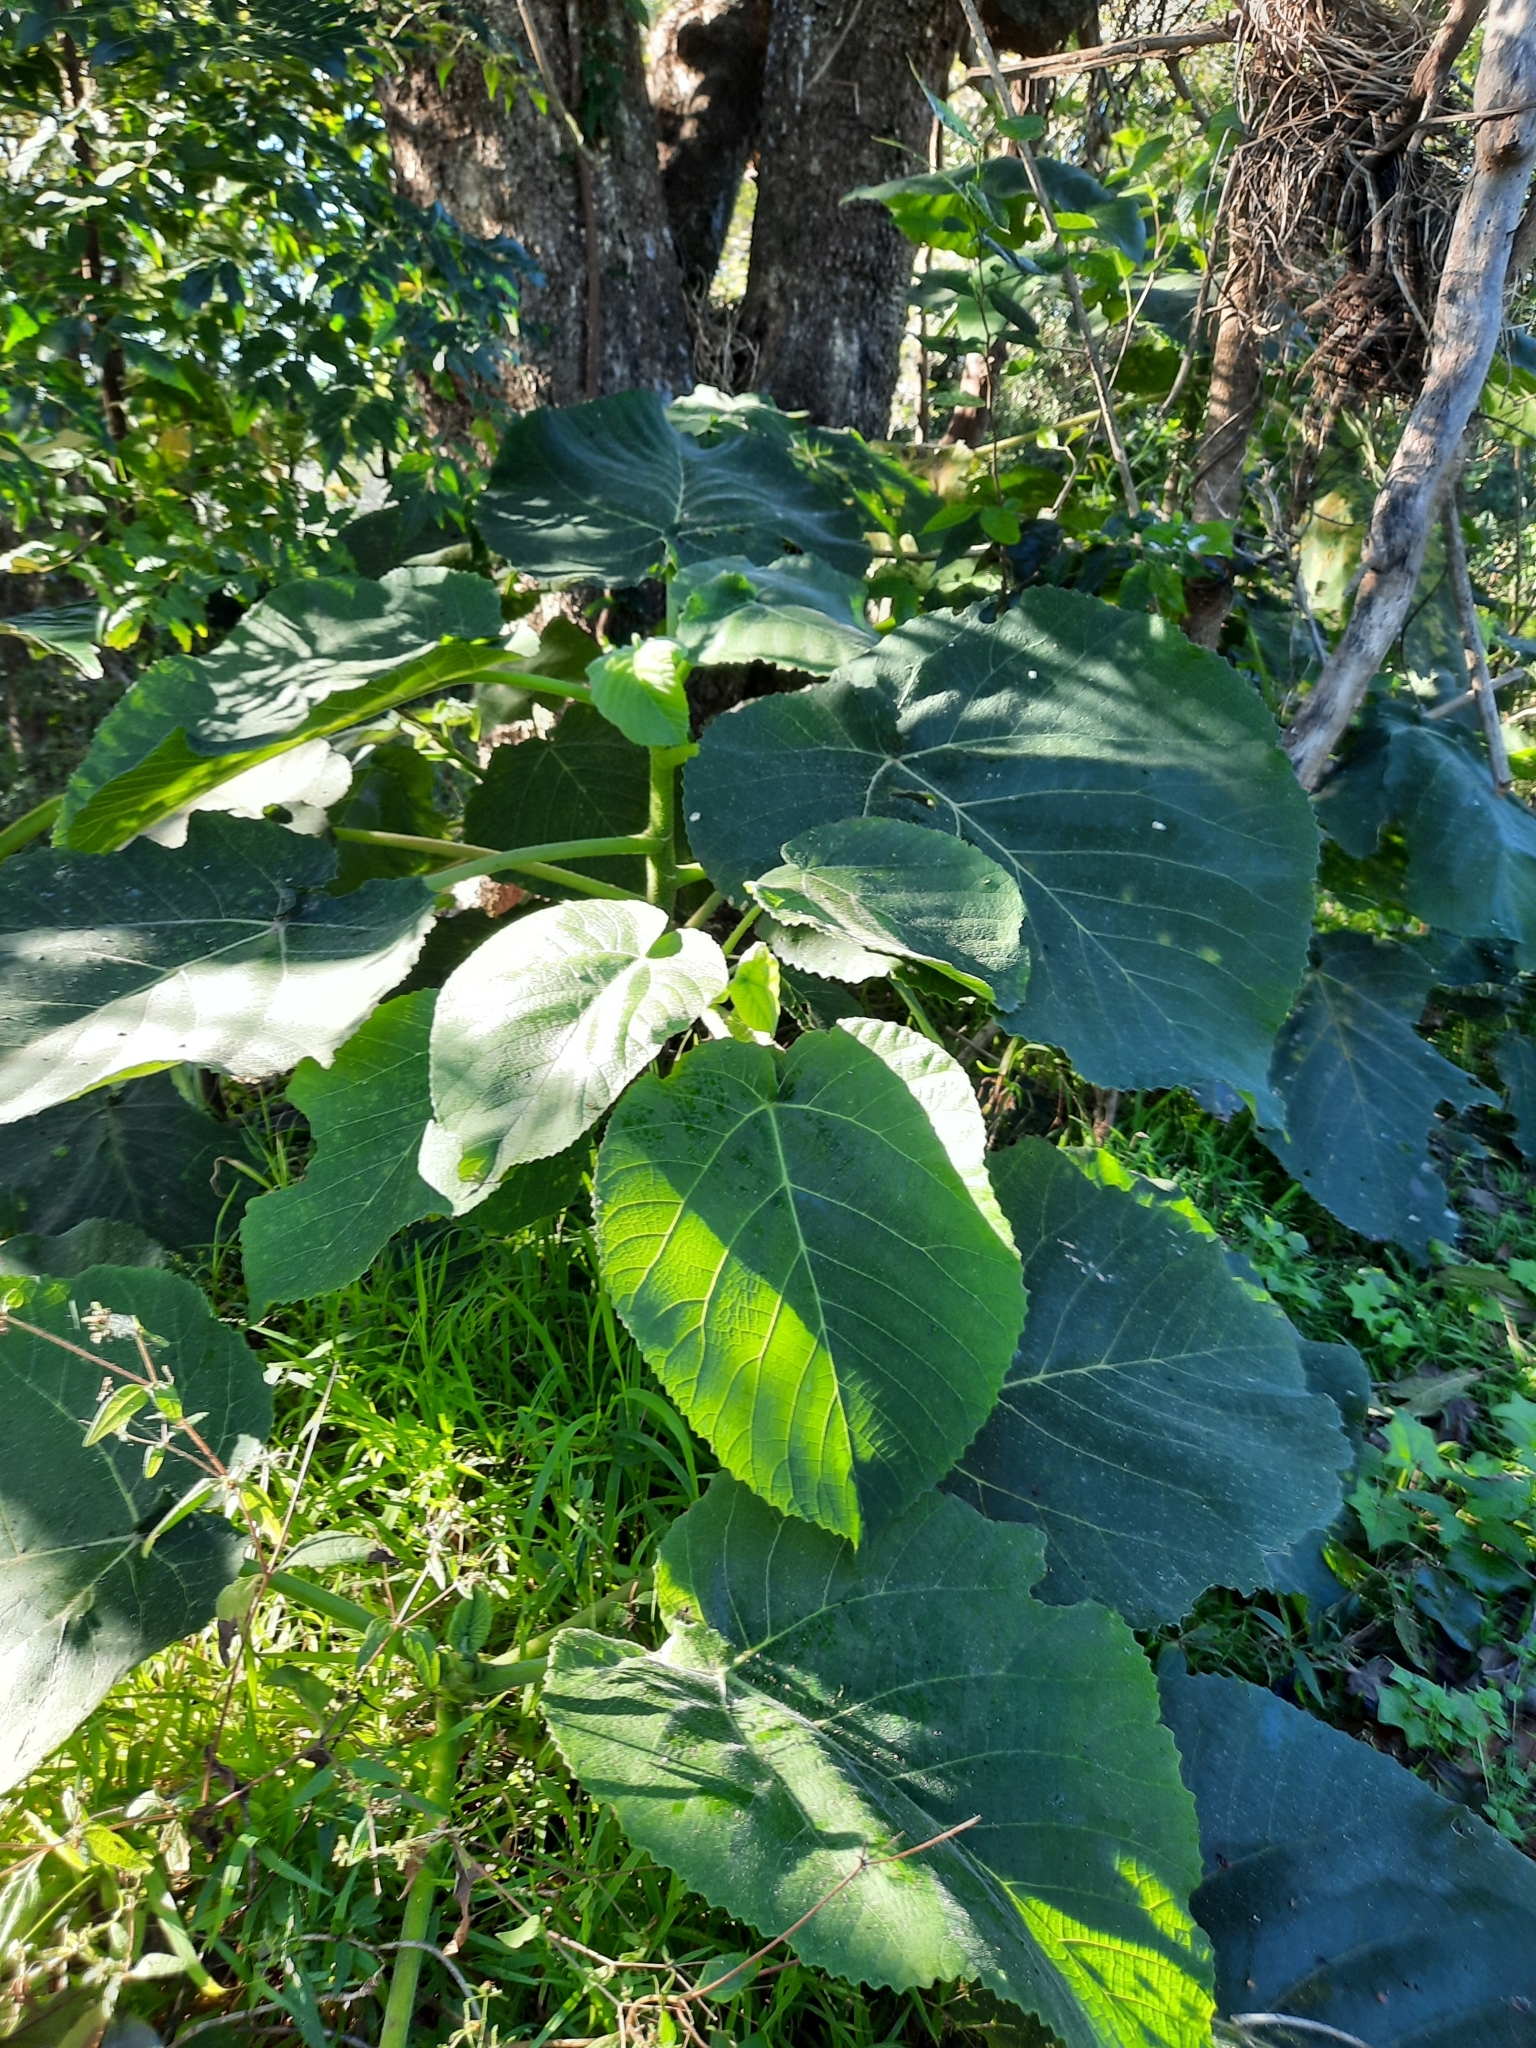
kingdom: Plantae
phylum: Tracheophyta
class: Magnoliopsida
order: Rosales
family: Urticaceae
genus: Dendrocnide
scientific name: Dendrocnide excelsa
